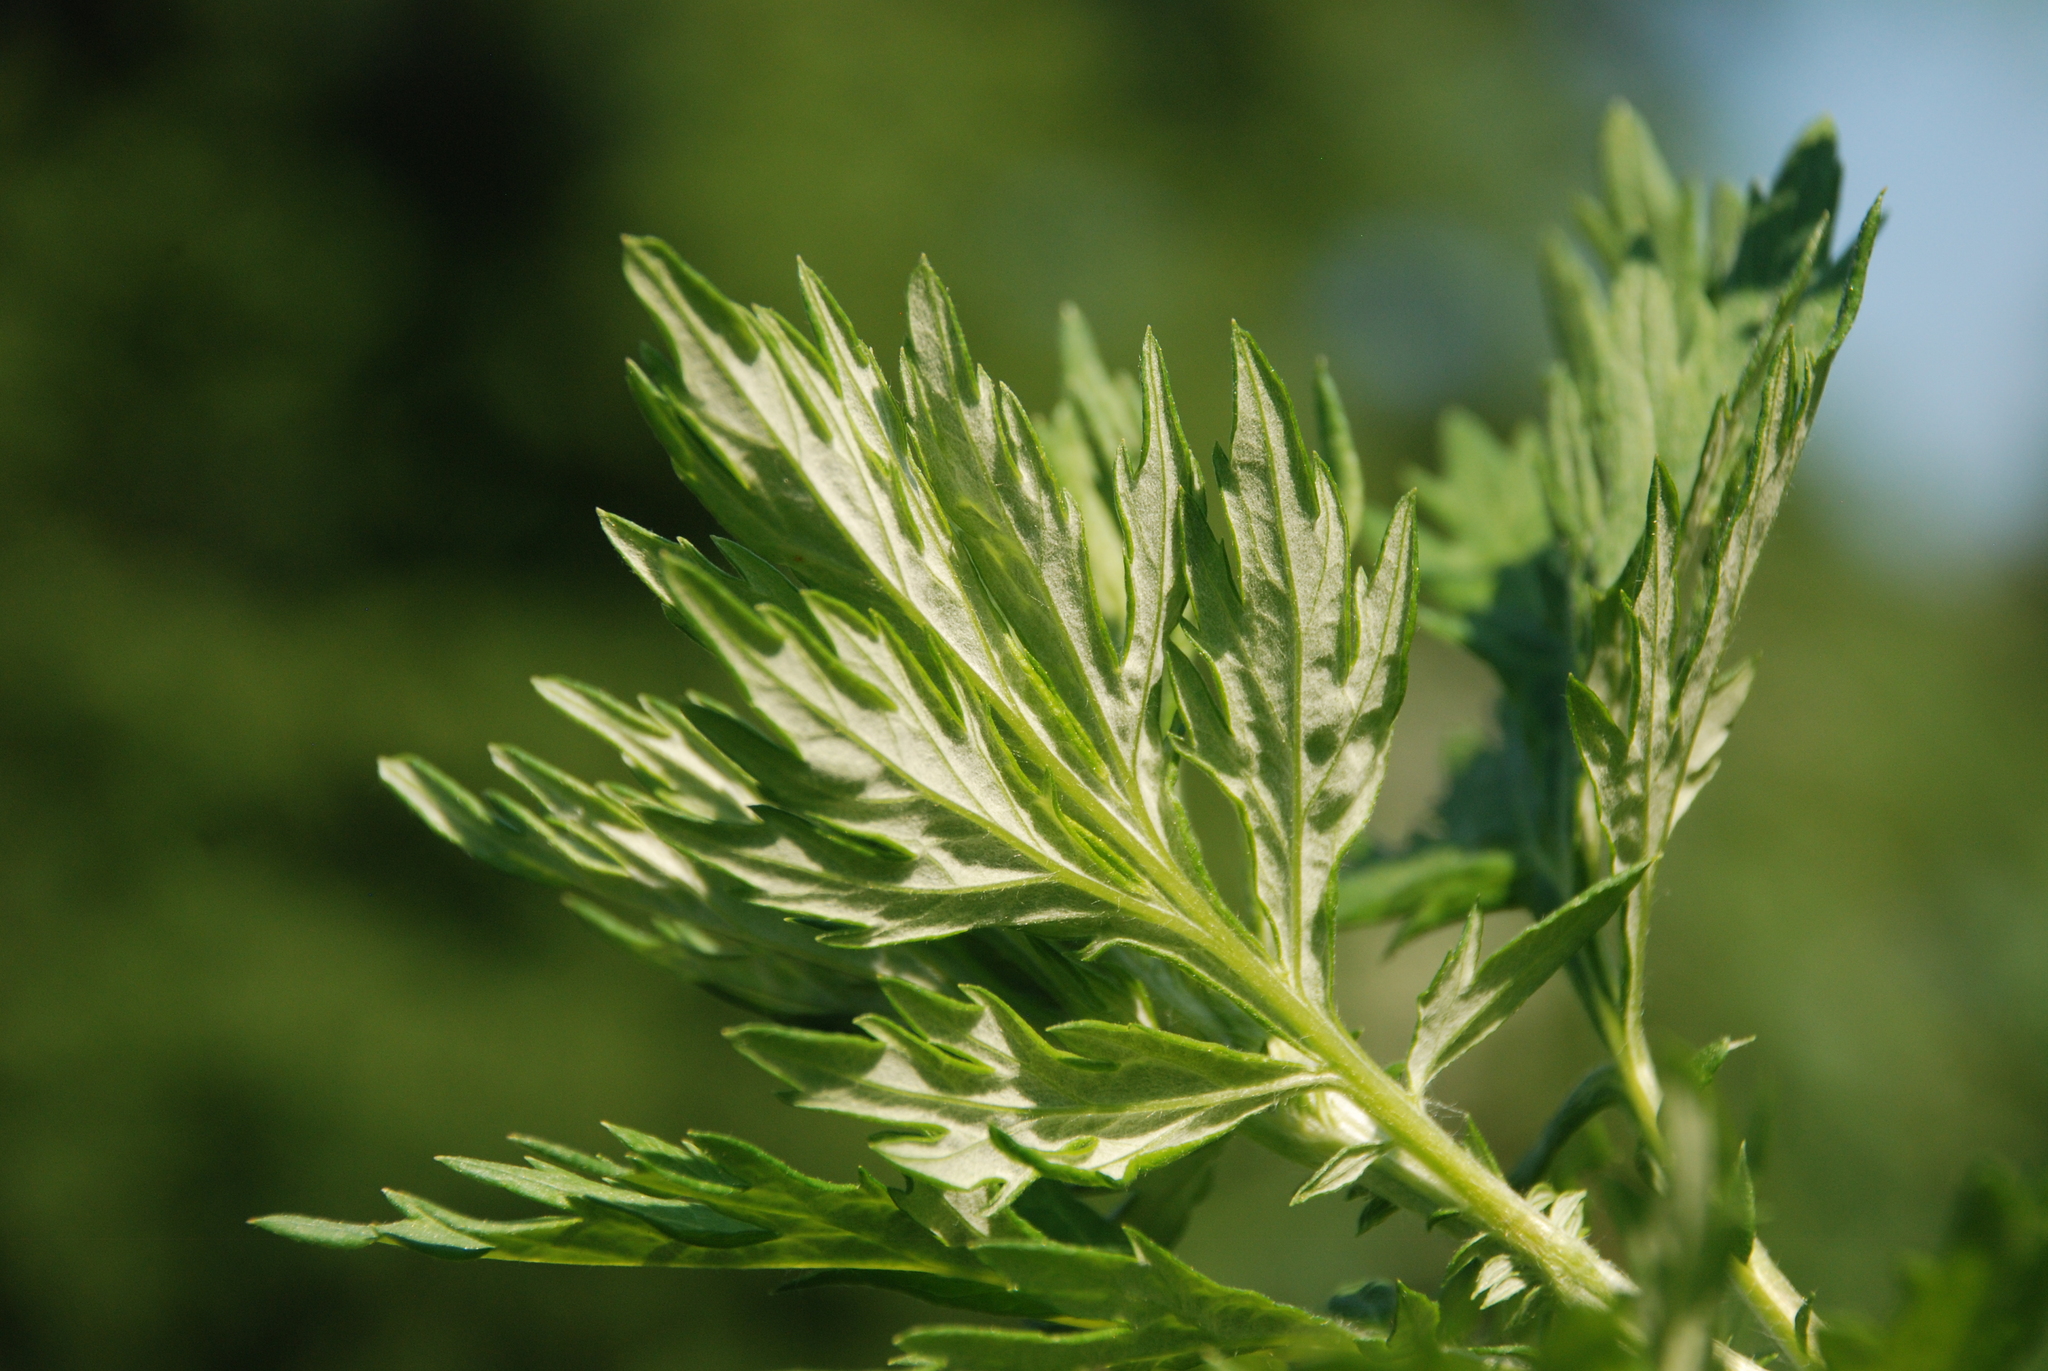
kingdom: Plantae
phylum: Tracheophyta
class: Magnoliopsida
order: Asterales
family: Asteraceae
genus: Artemisia
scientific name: Artemisia vulgaris
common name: Mugwort
